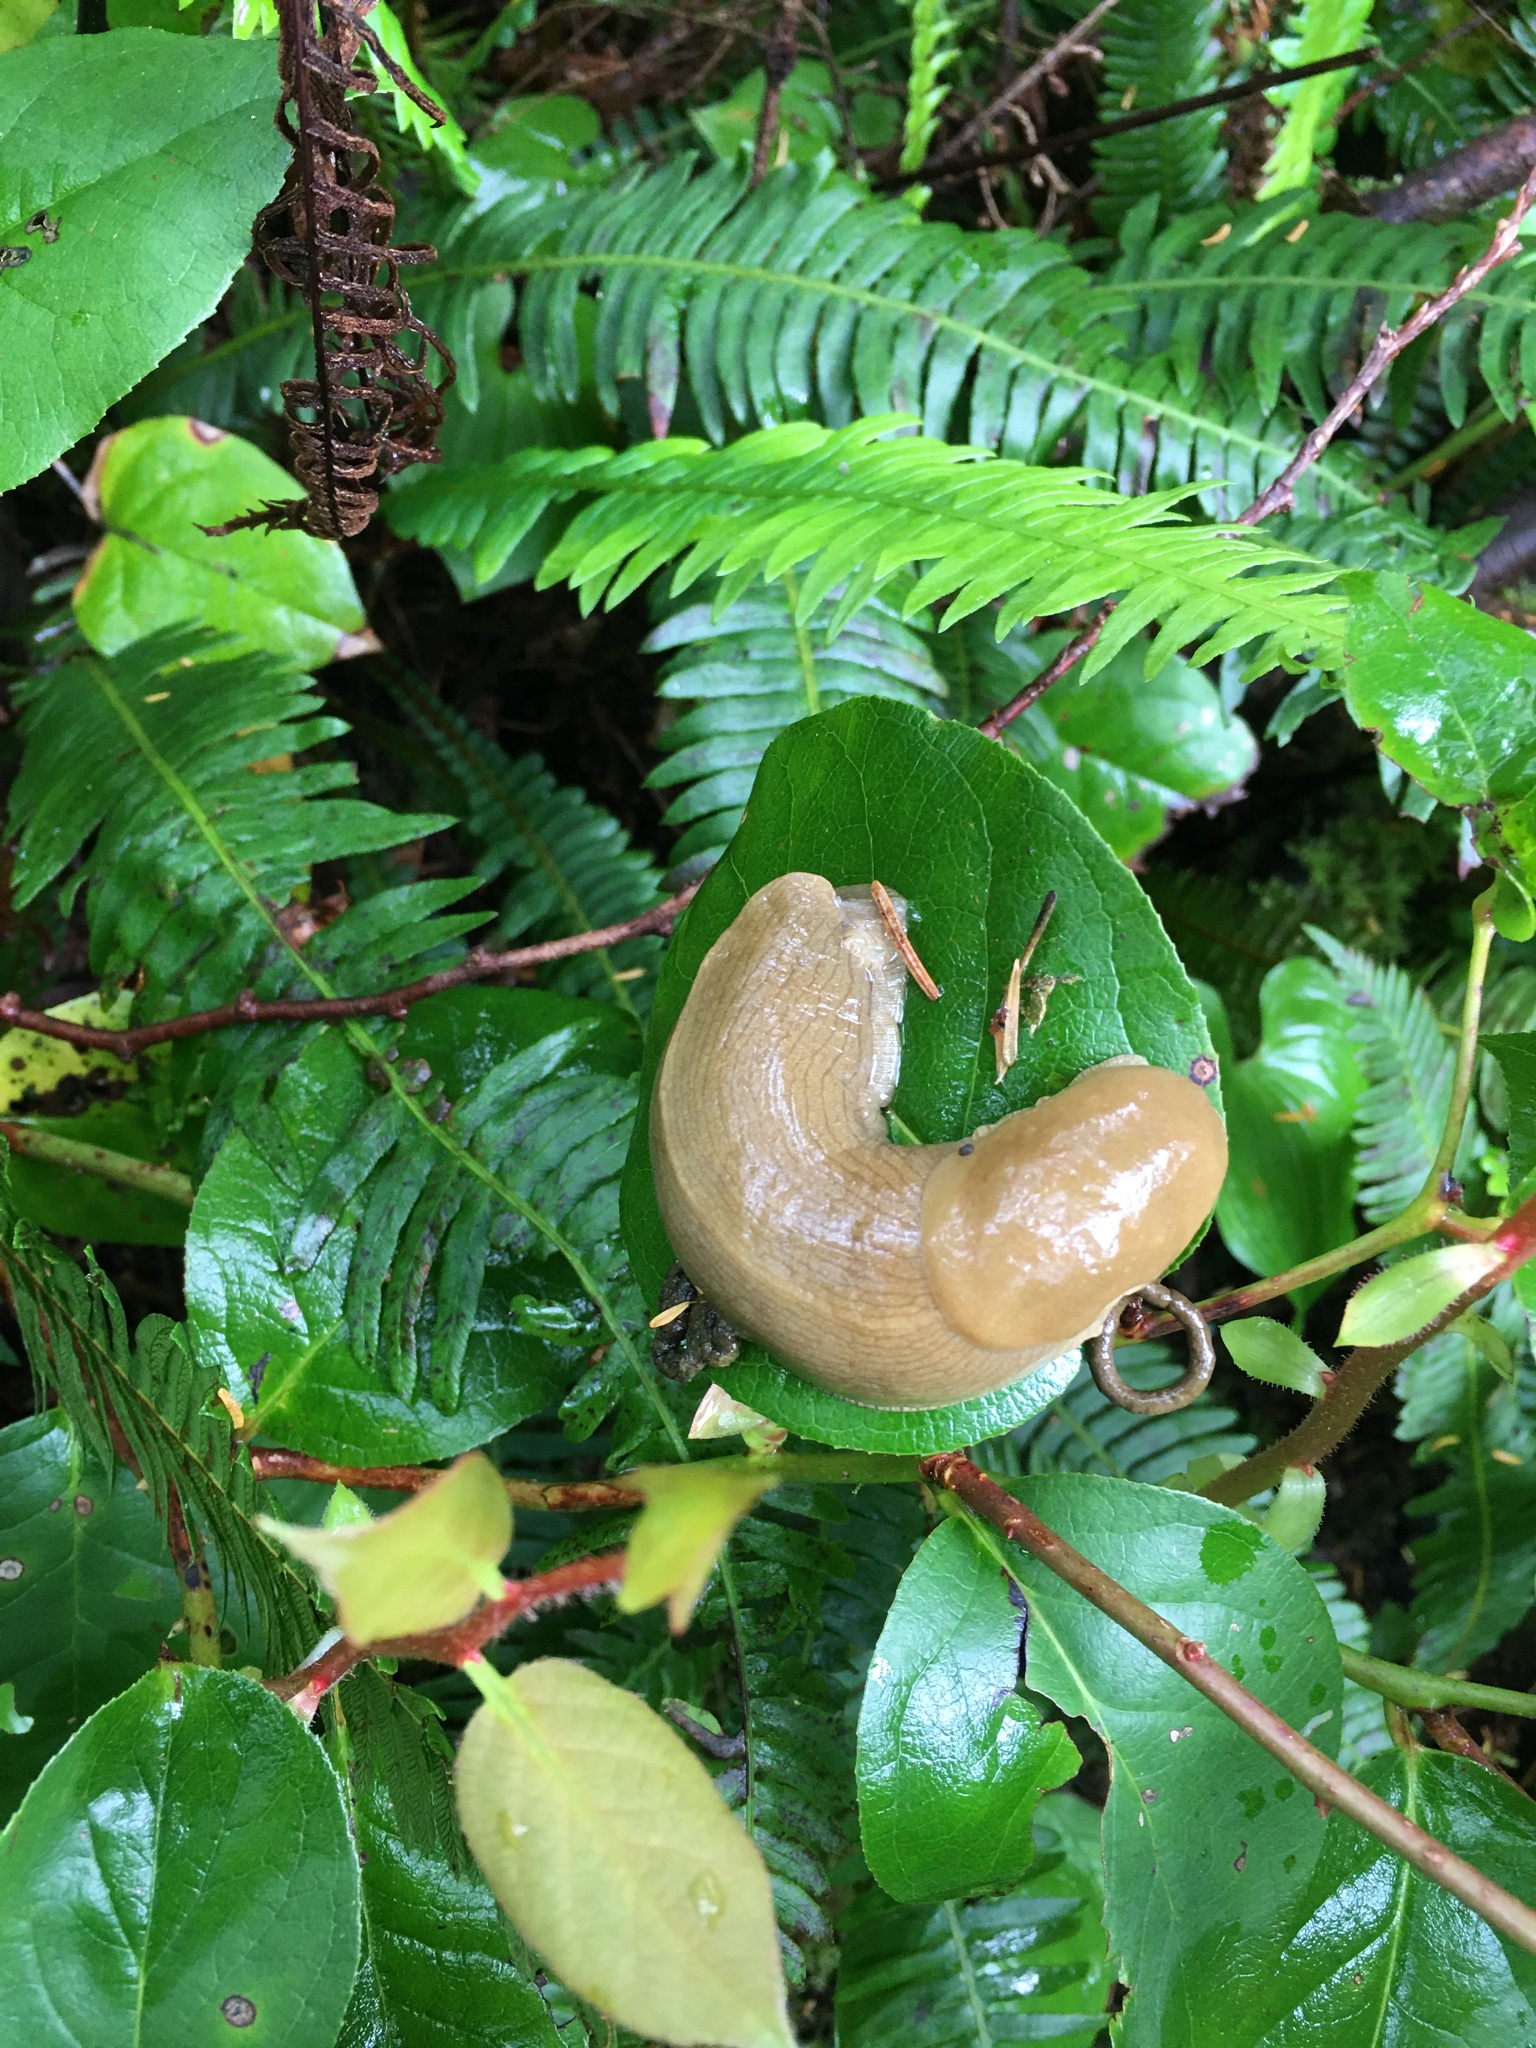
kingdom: Animalia
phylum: Mollusca
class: Gastropoda
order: Stylommatophora
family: Ariolimacidae
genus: Ariolimax
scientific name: Ariolimax columbianus
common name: Pacific banana slug
